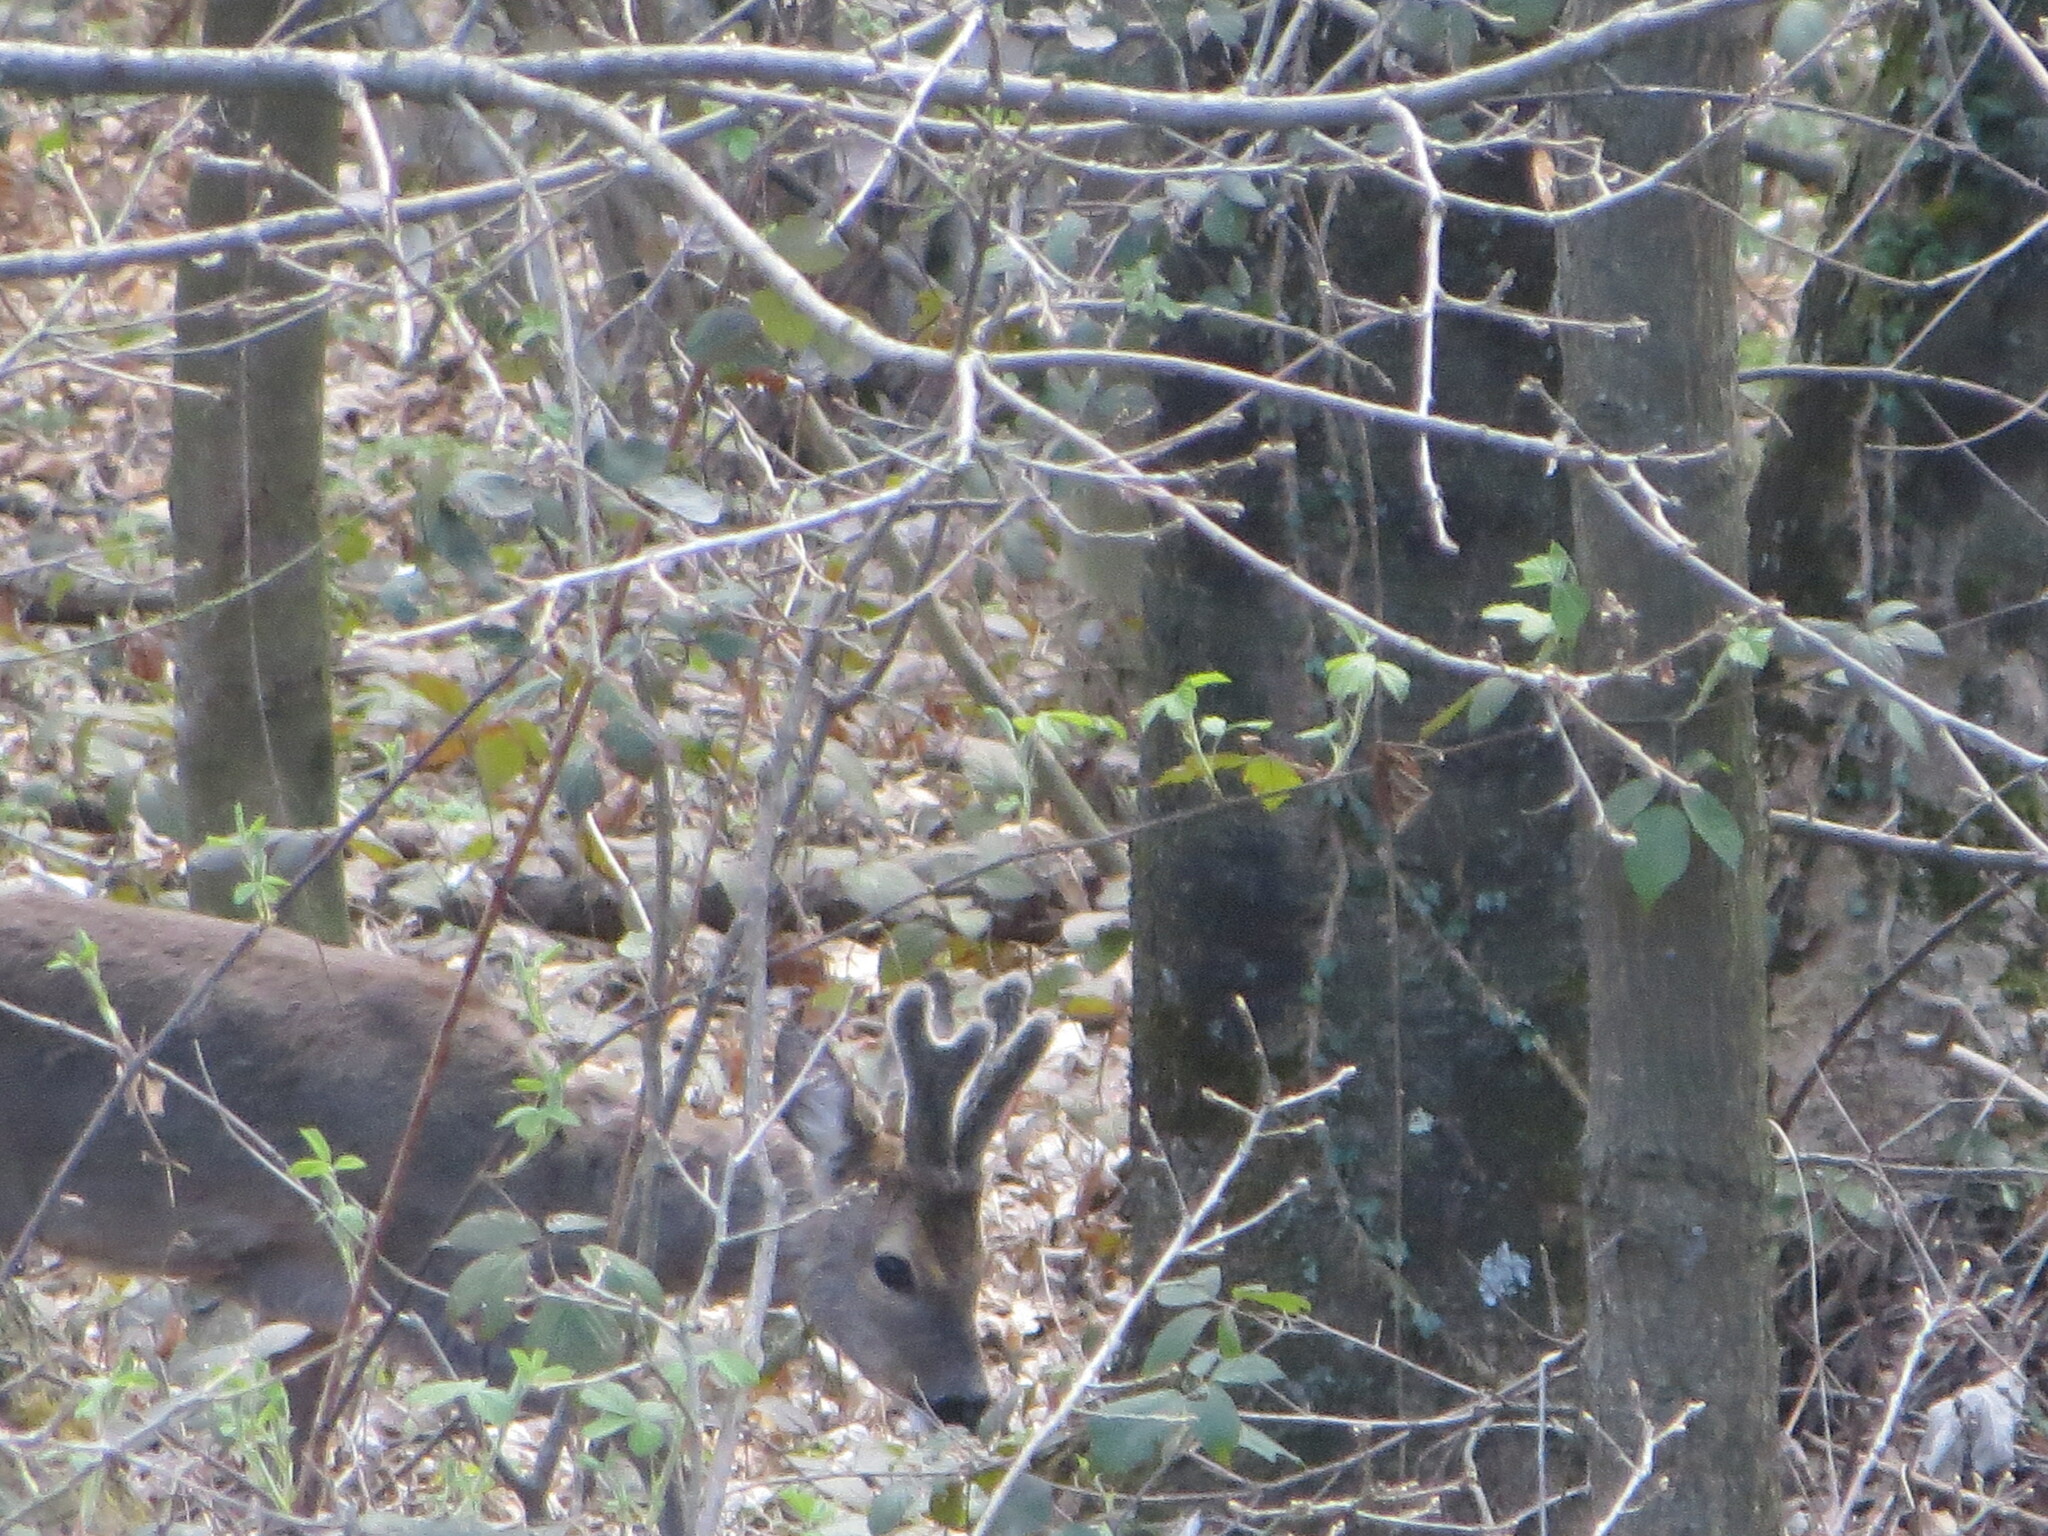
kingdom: Animalia
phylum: Chordata
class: Mammalia
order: Artiodactyla
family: Cervidae
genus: Capreolus
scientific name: Capreolus capreolus
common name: Western roe deer
